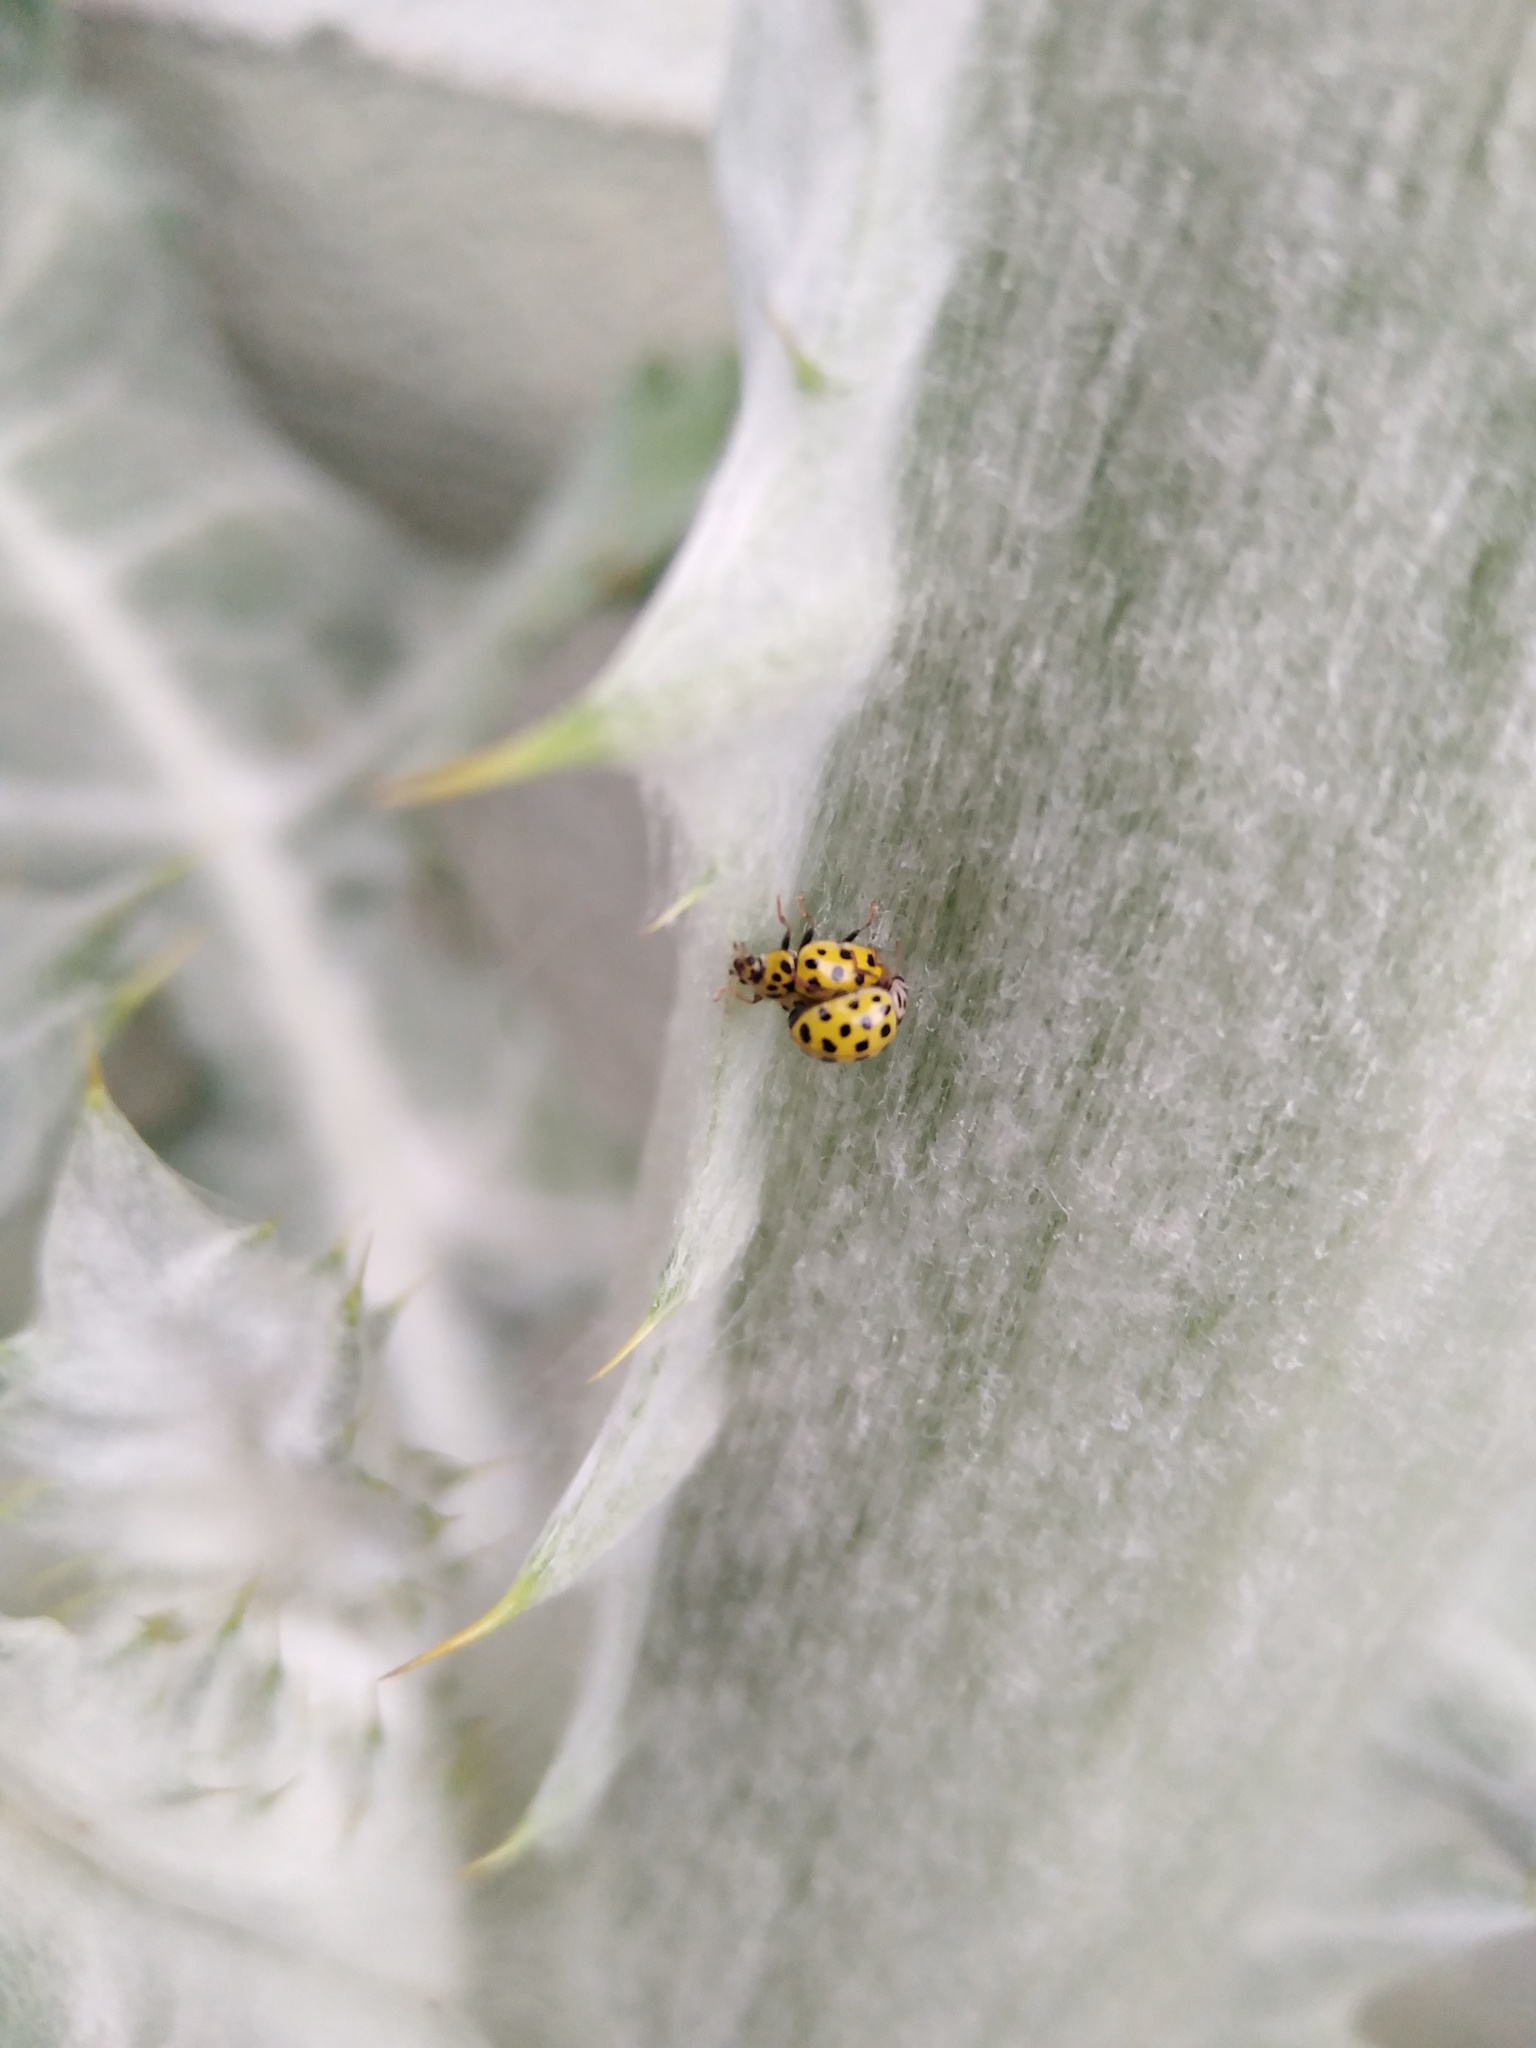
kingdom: Animalia
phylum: Arthropoda
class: Insecta
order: Coleoptera
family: Coccinellidae
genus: Psyllobora
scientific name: Psyllobora vigintiduopunctata
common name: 22-spot ladybird
